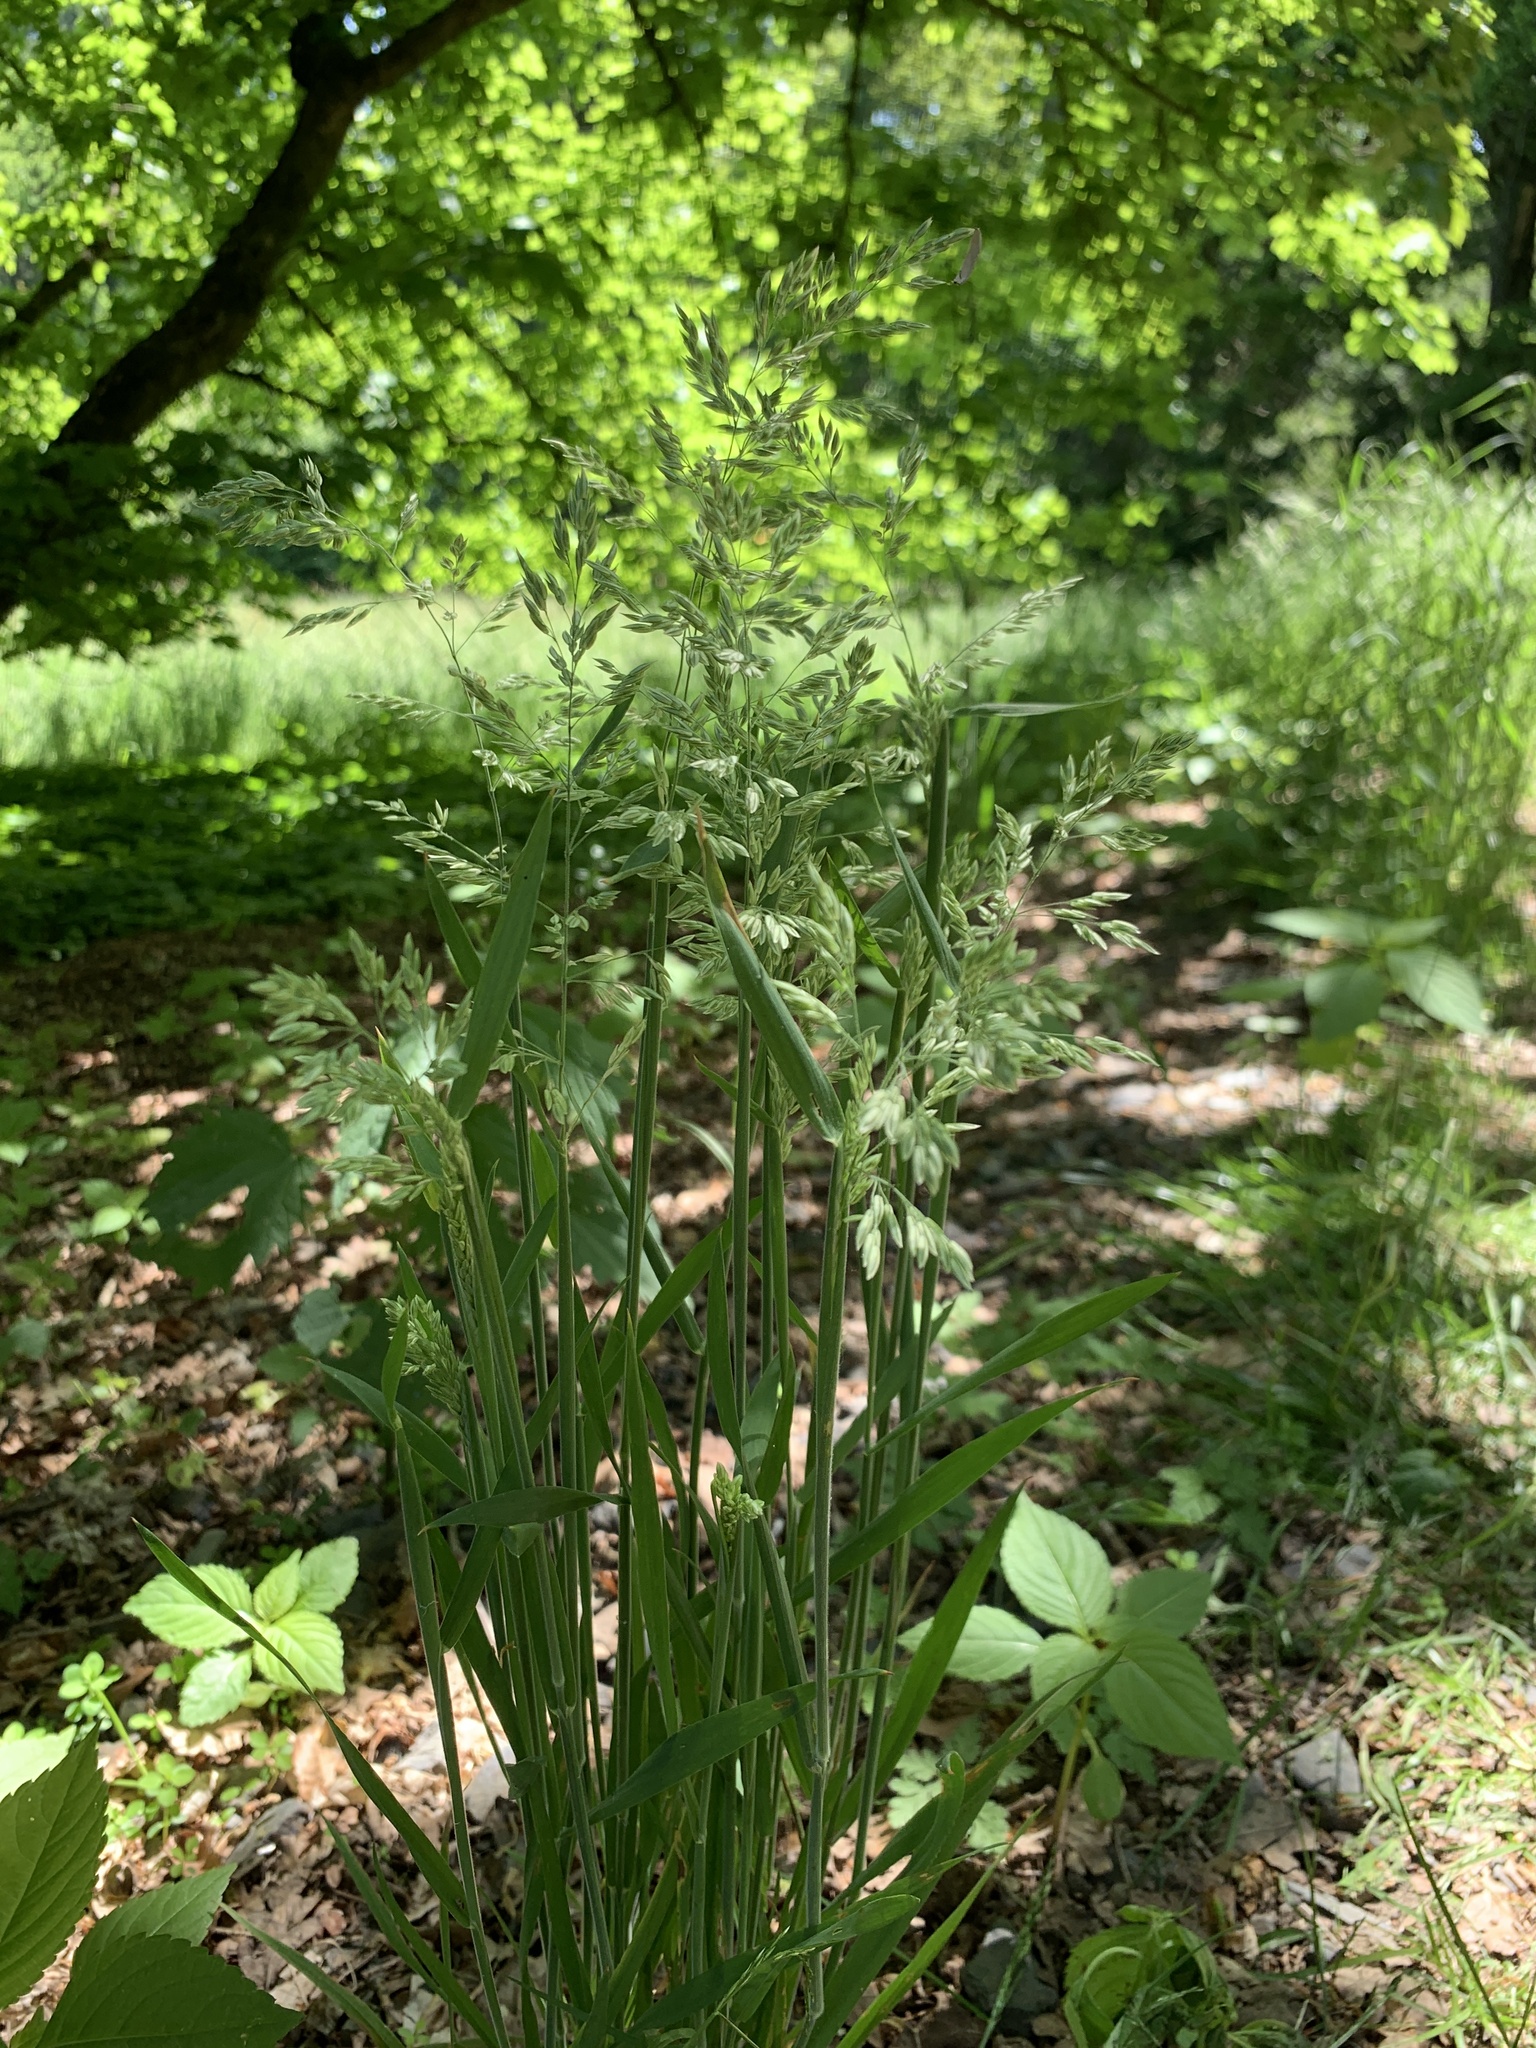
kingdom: Plantae
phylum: Tracheophyta
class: Liliopsida
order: Poales
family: Poaceae
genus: Holcus
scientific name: Holcus lanatus
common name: Yorkshire-fog
